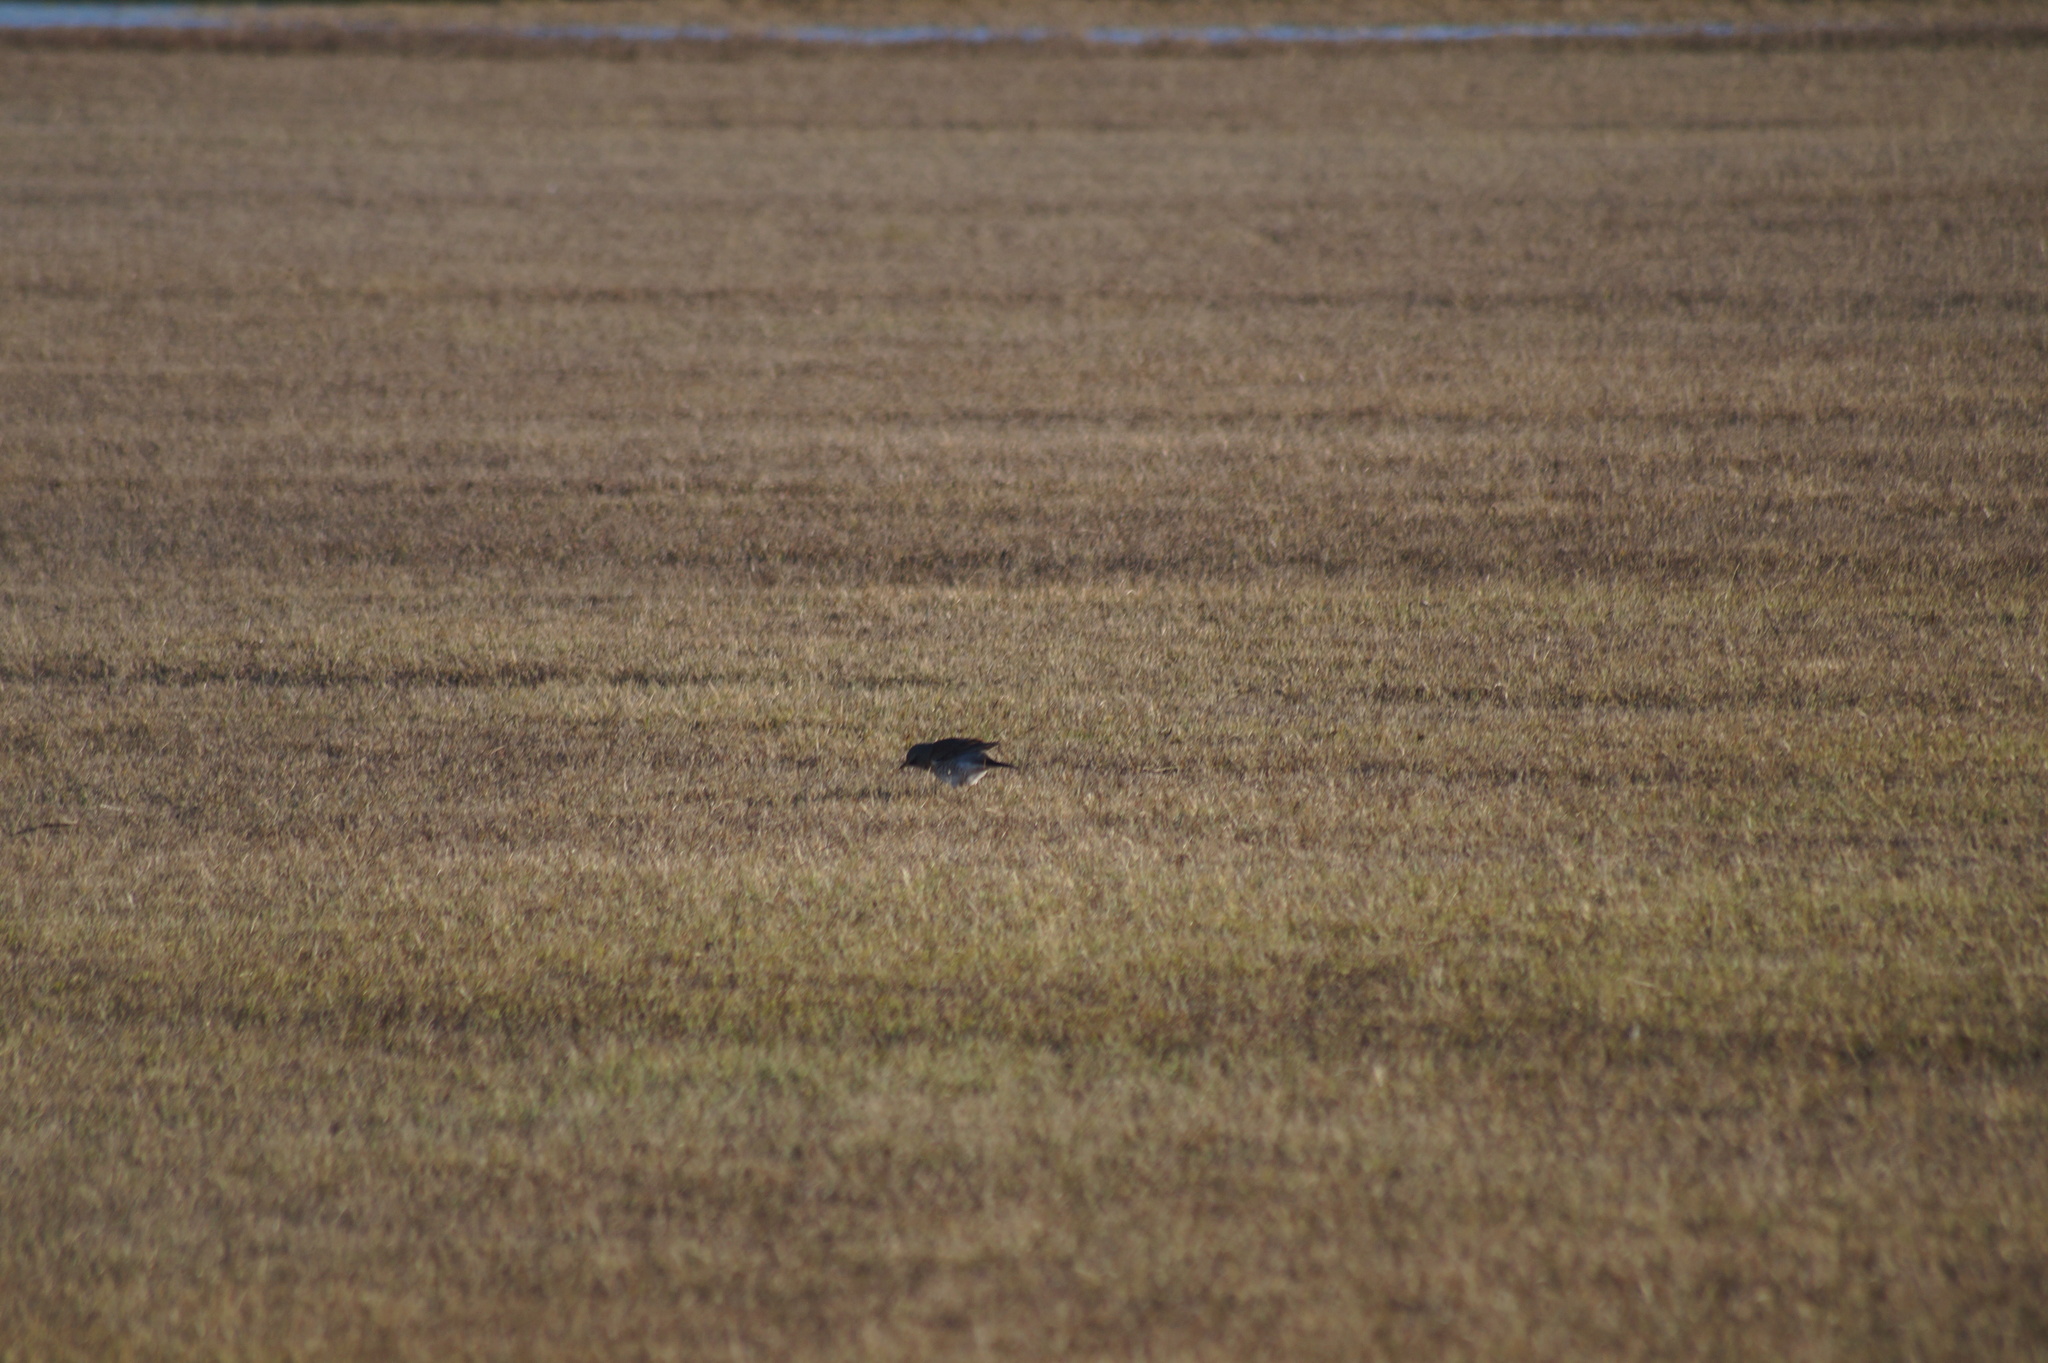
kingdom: Animalia
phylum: Chordata
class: Aves
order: Passeriformes
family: Turdidae
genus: Turdus
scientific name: Turdus pilaris
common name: Fieldfare
